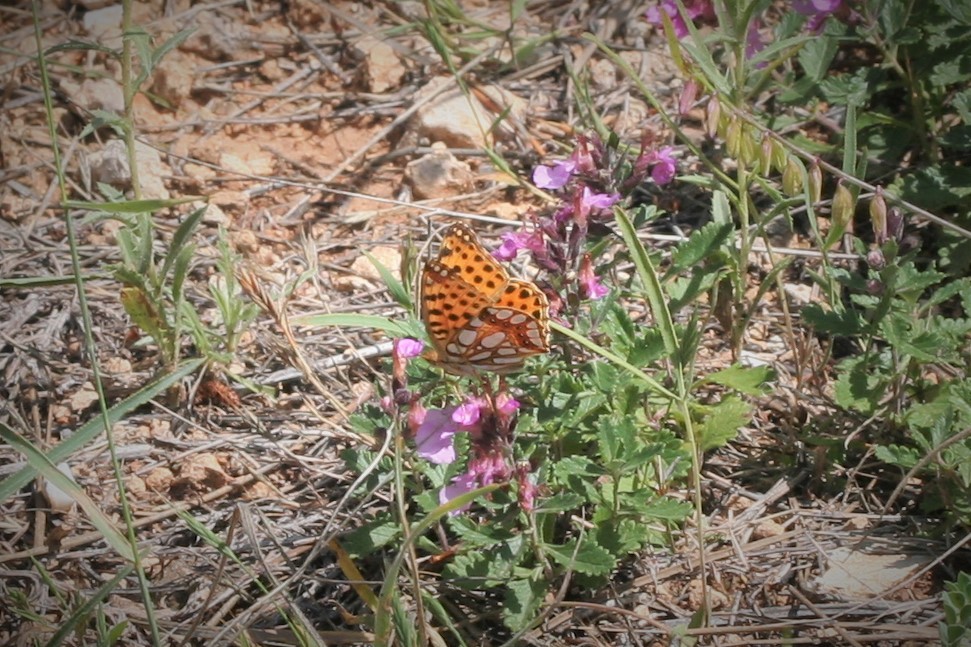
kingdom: Animalia
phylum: Arthropoda
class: Insecta
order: Lepidoptera
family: Nymphalidae
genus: Issoria
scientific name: Issoria lathonia
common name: Queen of spain fritillary
